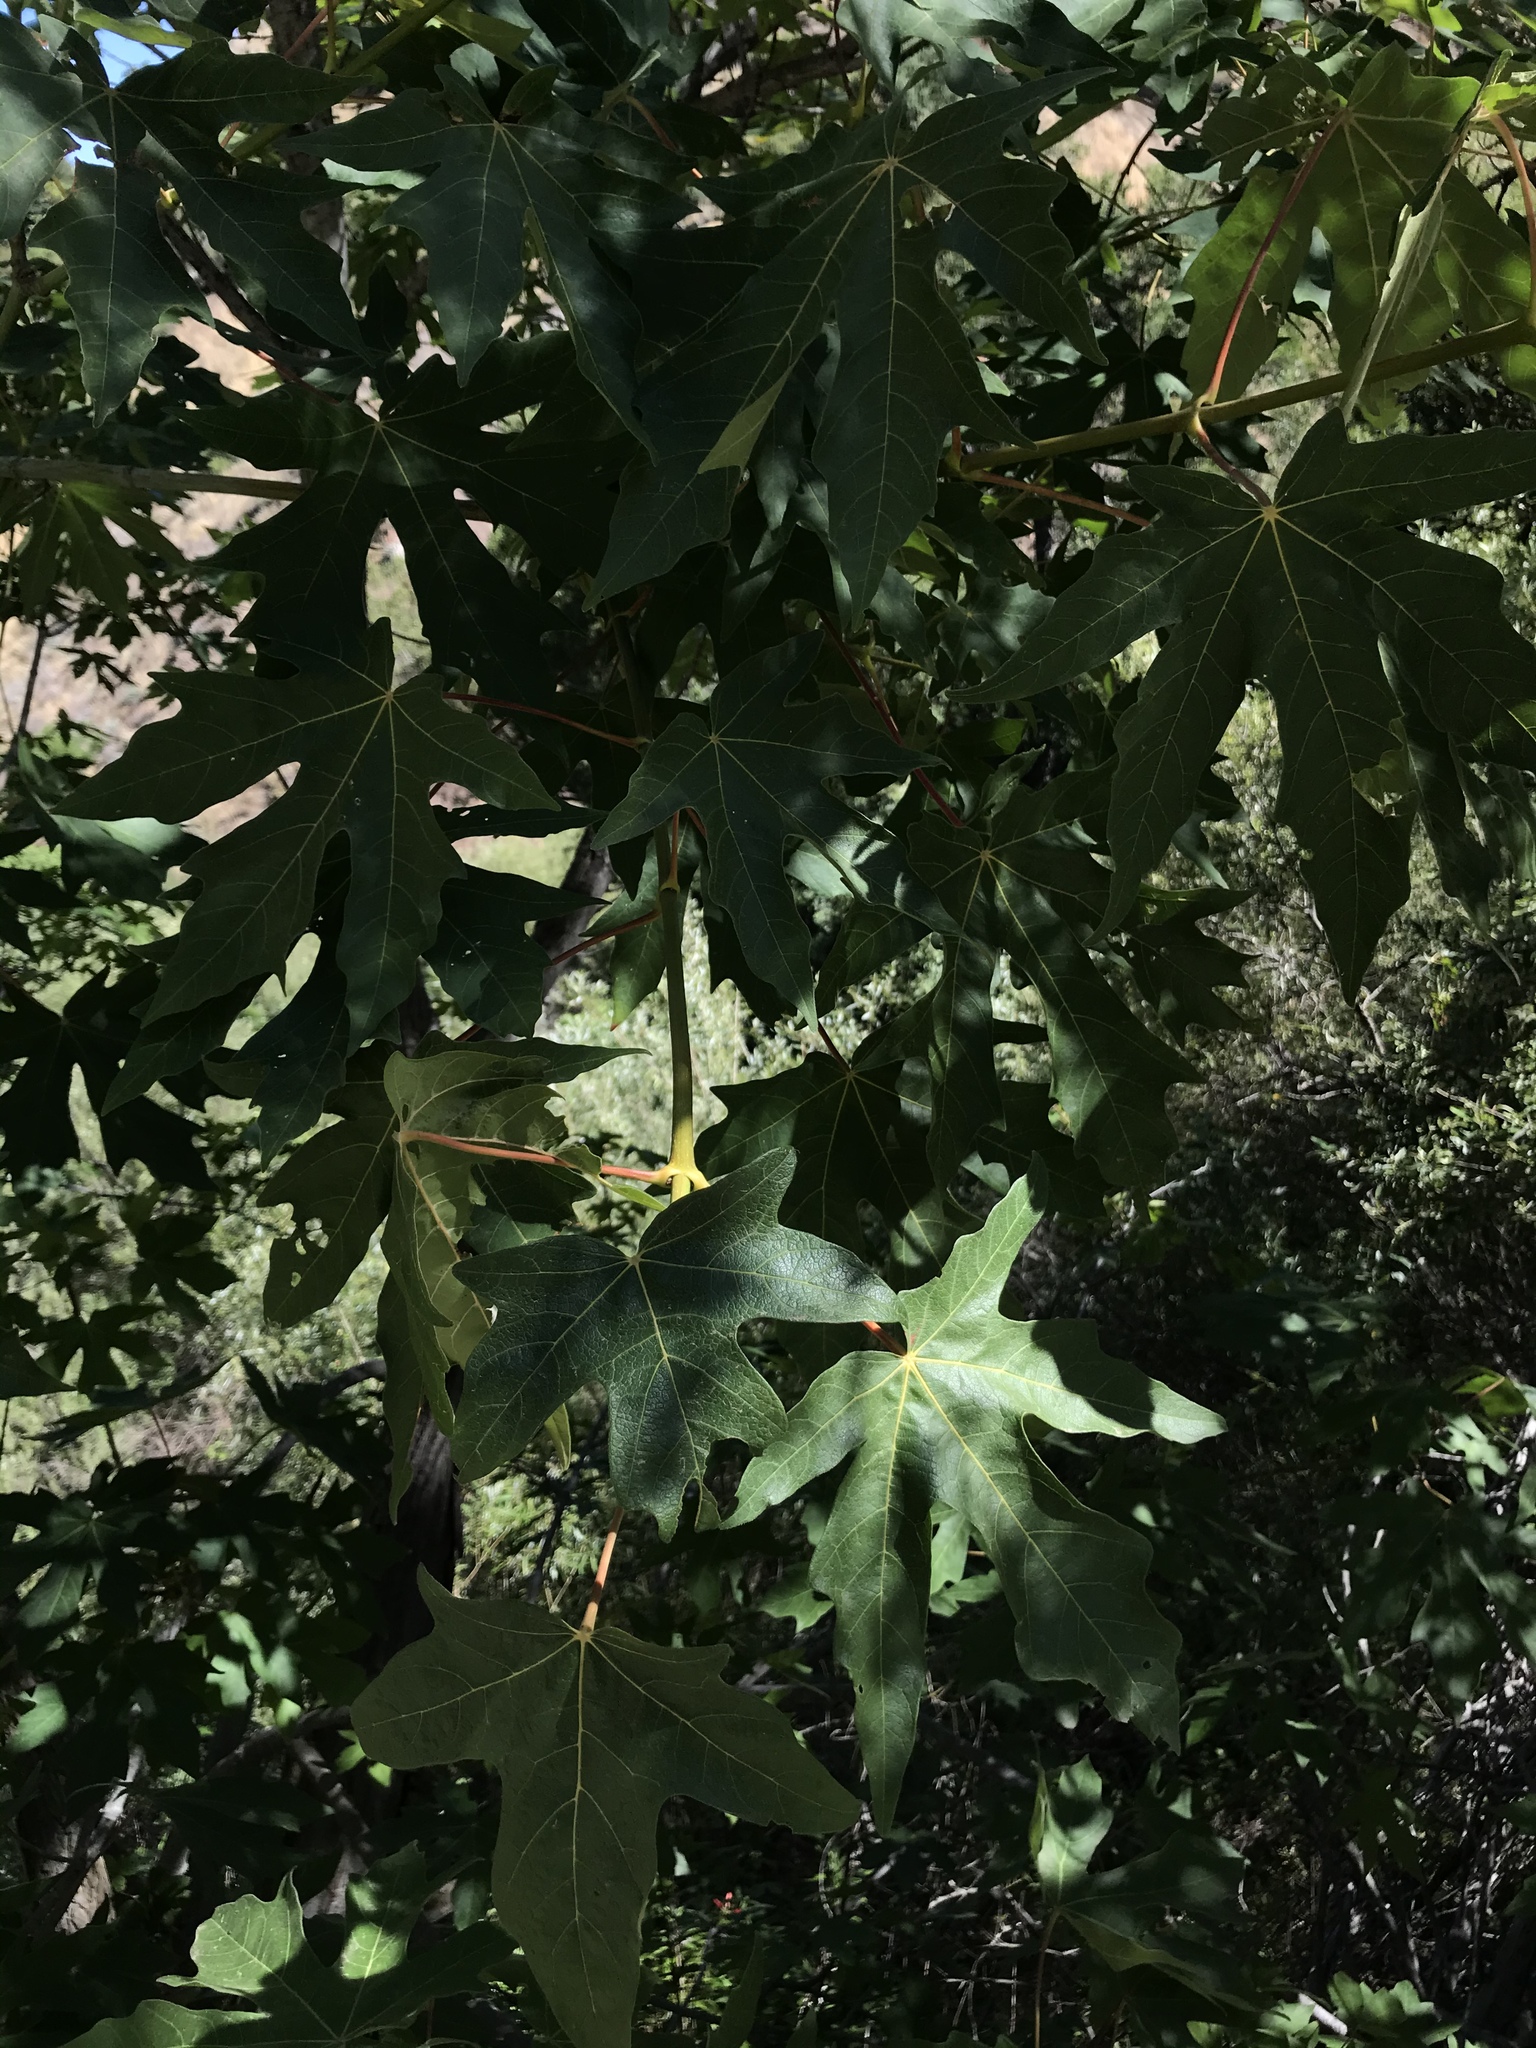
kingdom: Plantae
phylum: Tracheophyta
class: Magnoliopsida
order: Sapindales
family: Sapindaceae
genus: Acer
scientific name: Acer macrophyllum
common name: Oregon maple
